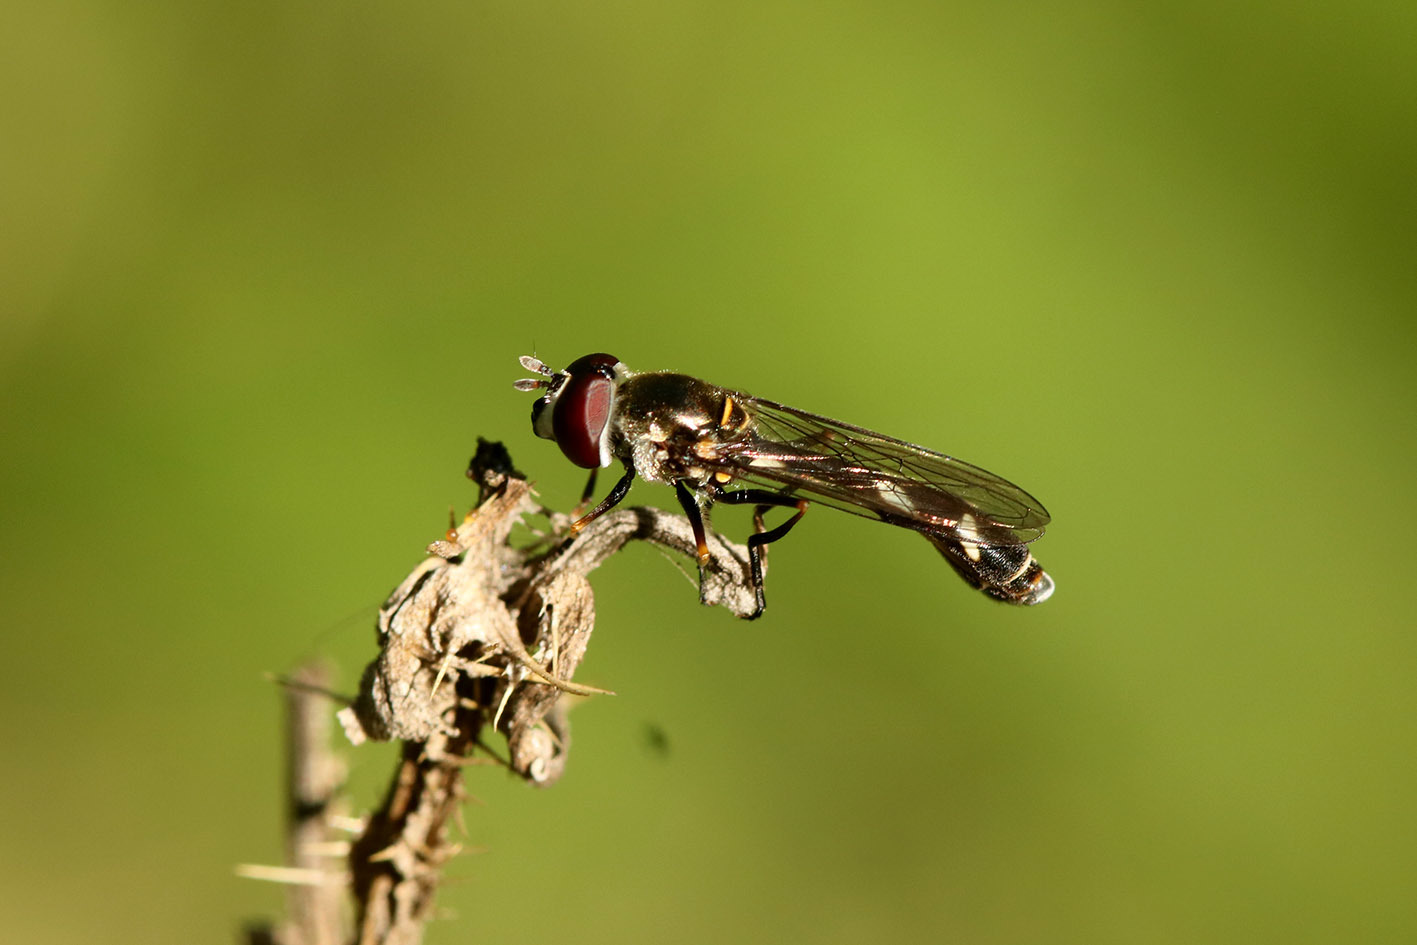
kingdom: Animalia
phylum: Arthropoda
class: Insecta
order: Diptera
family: Syrphidae
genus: Dioprosopa
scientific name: Dioprosopa clavatus
